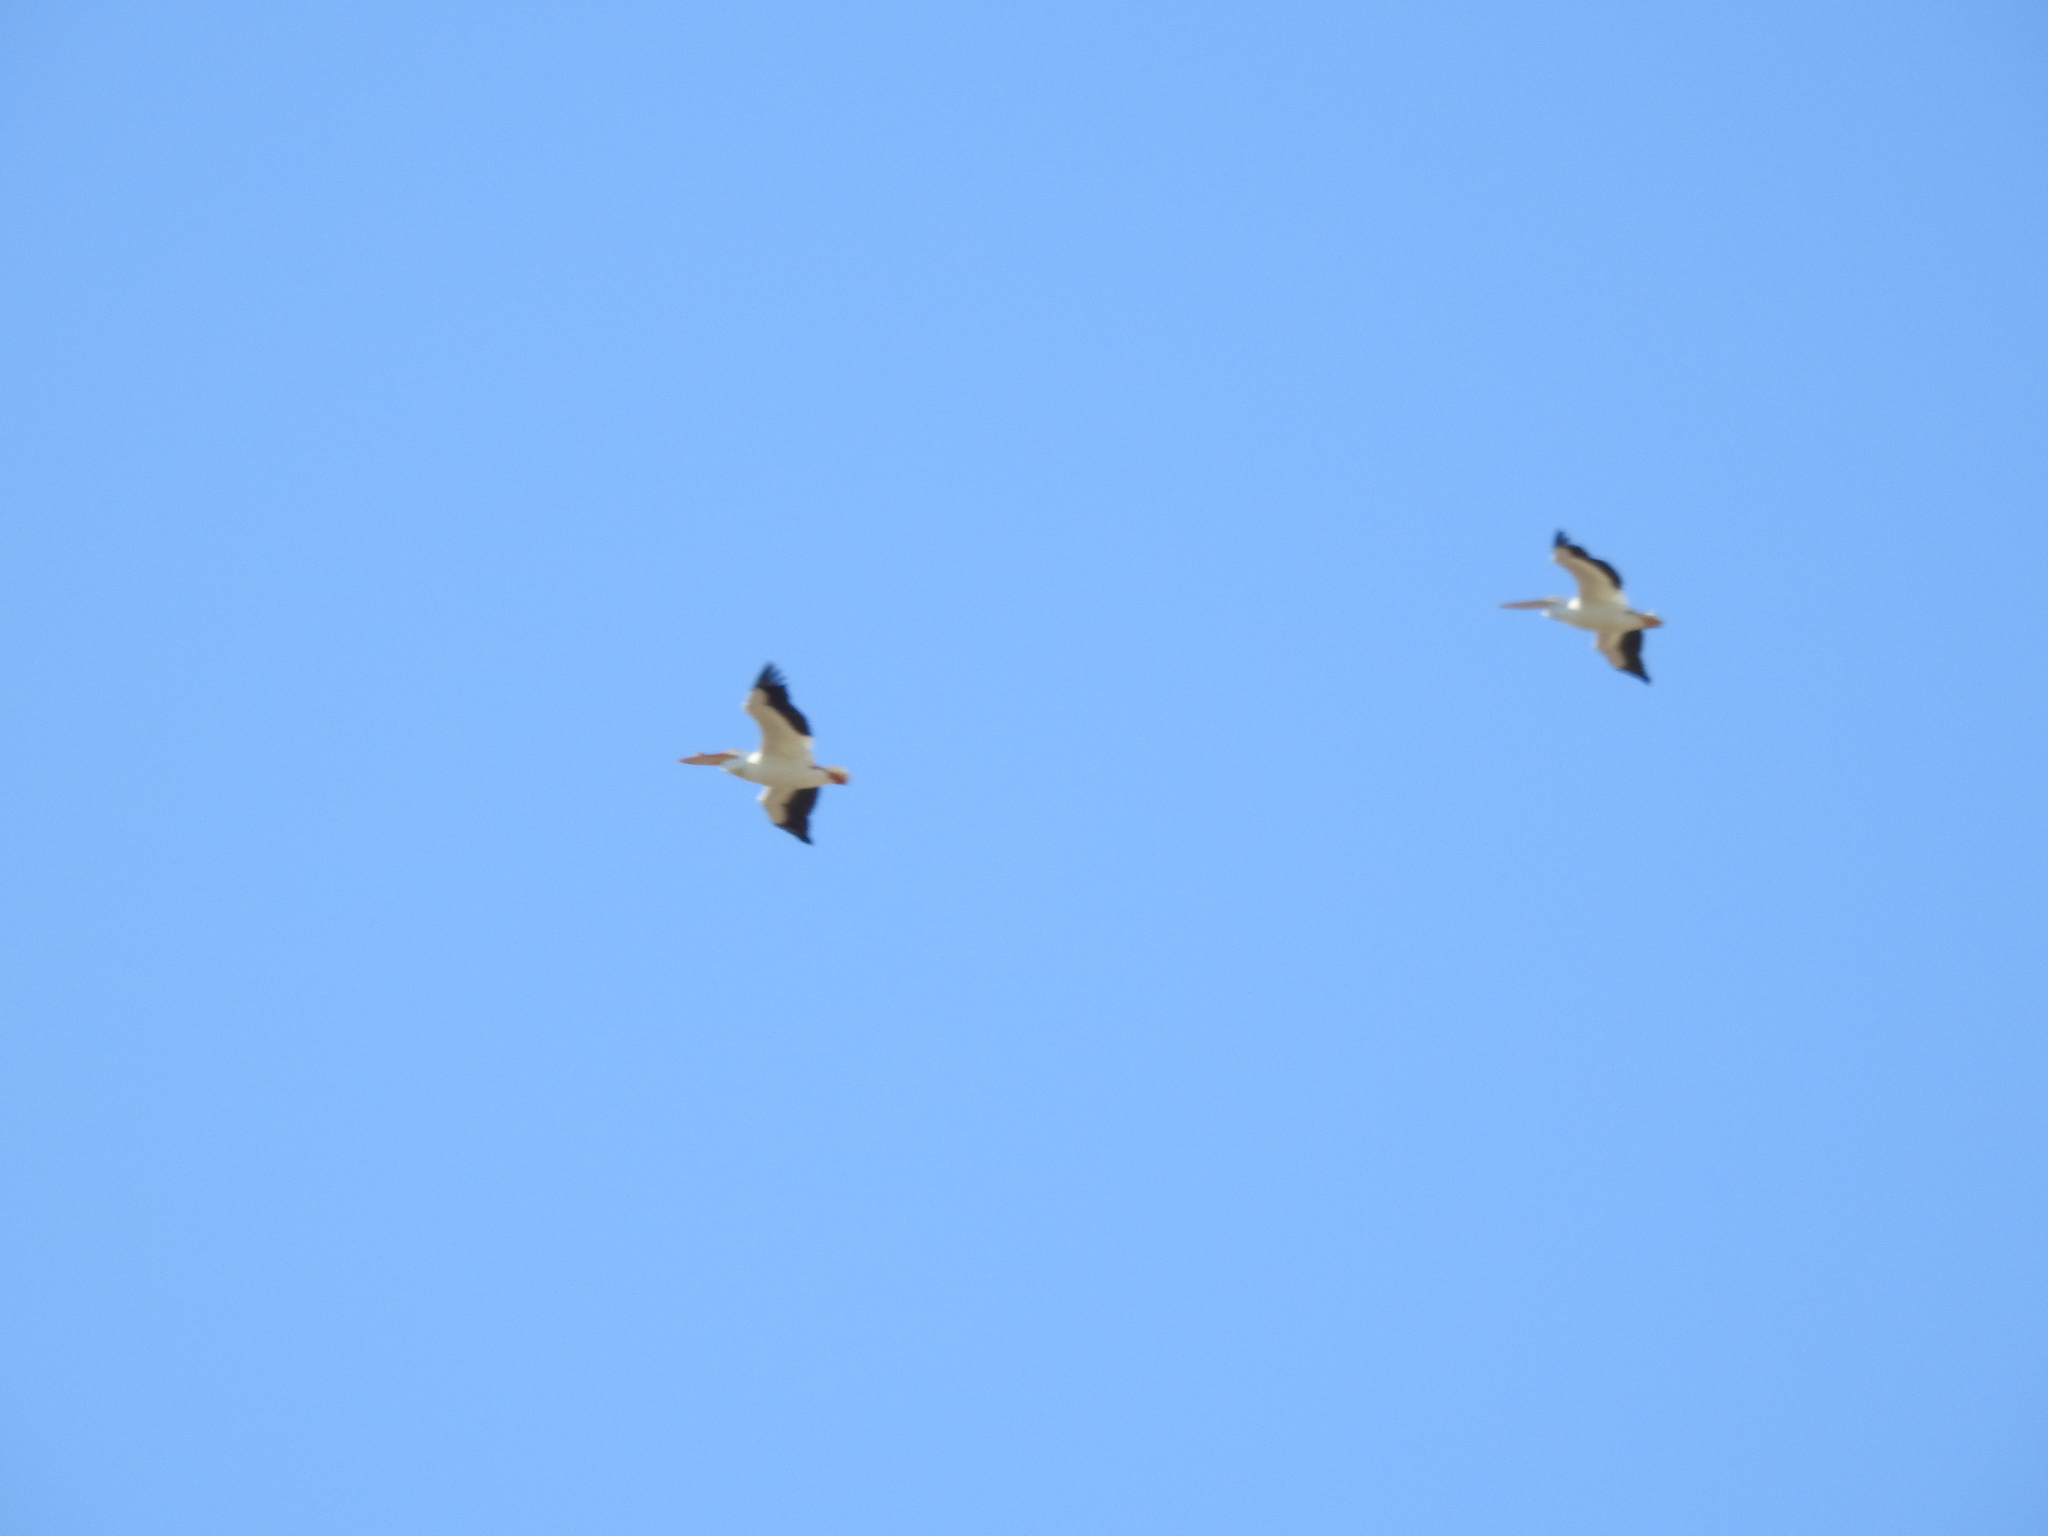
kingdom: Animalia
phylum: Chordata
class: Aves
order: Pelecaniformes
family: Pelecanidae
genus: Pelecanus
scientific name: Pelecanus erythrorhynchos
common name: American white pelican
